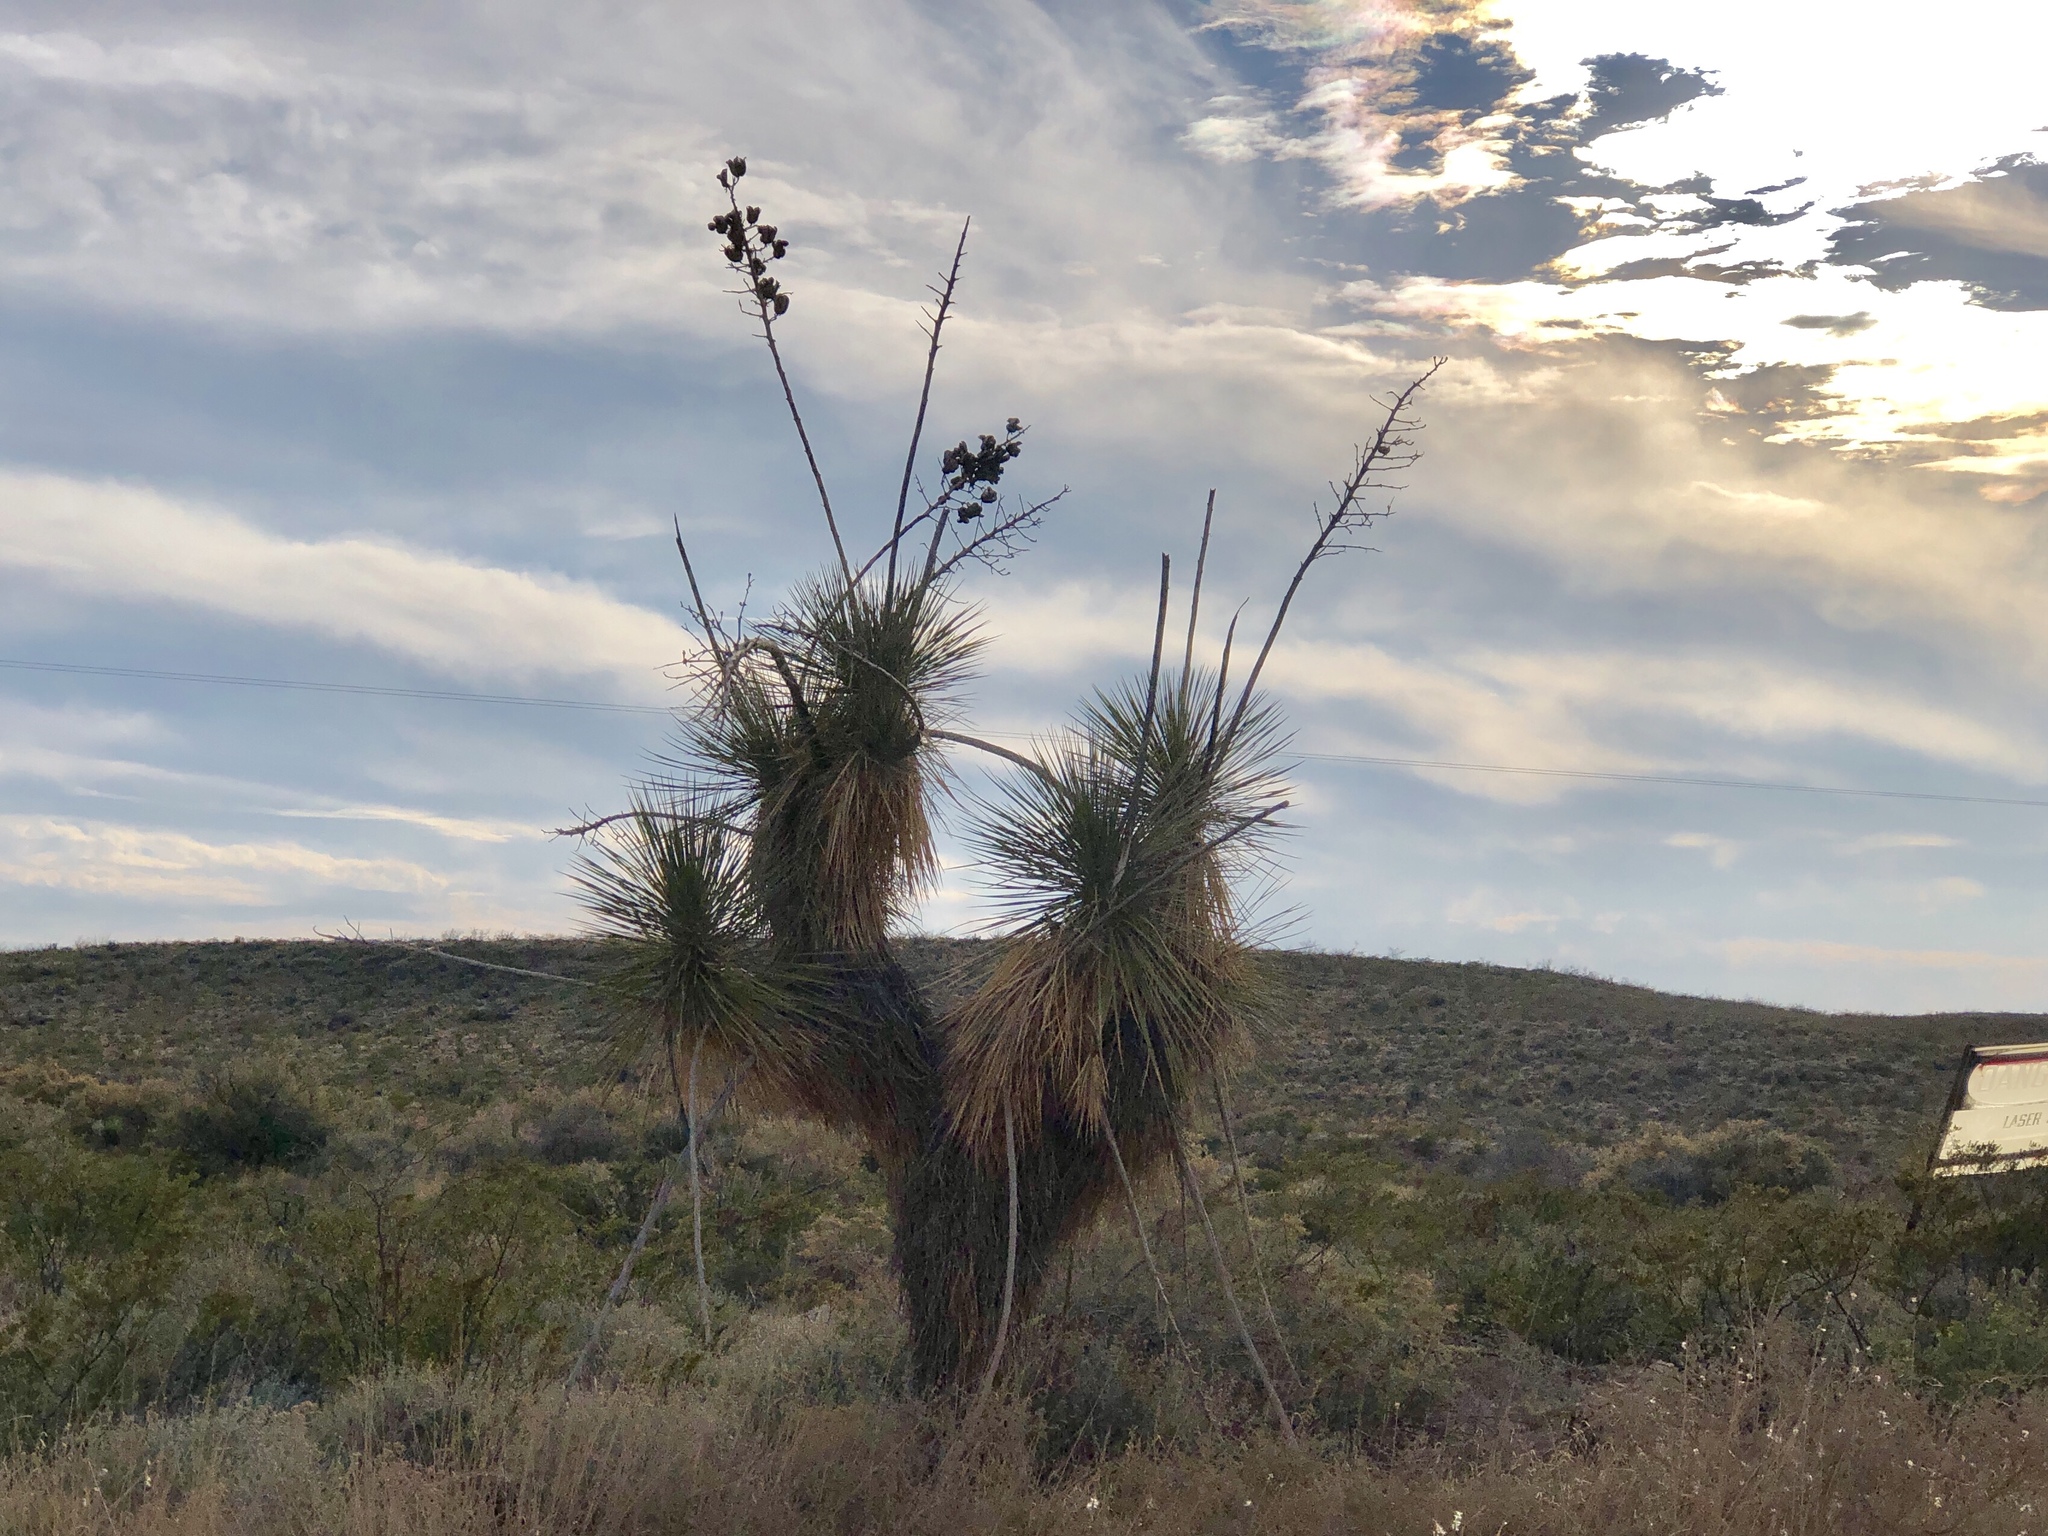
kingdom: Plantae
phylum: Tracheophyta
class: Liliopsida
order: Asparagales
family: Asparagaceae
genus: Yucca
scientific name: Yucca elata
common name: Palmella
